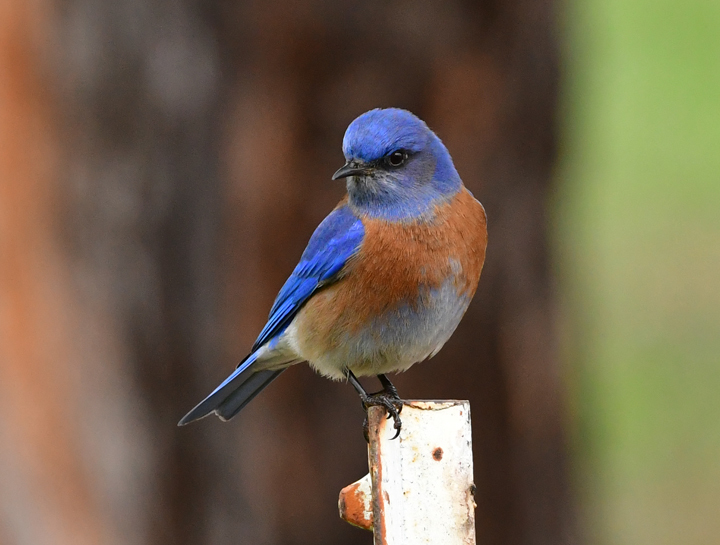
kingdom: Animalia
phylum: Chordata
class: Aves
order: Passeriformes
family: Turdidae
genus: Sialia
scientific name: Sialia mexicana
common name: Western bluebird
